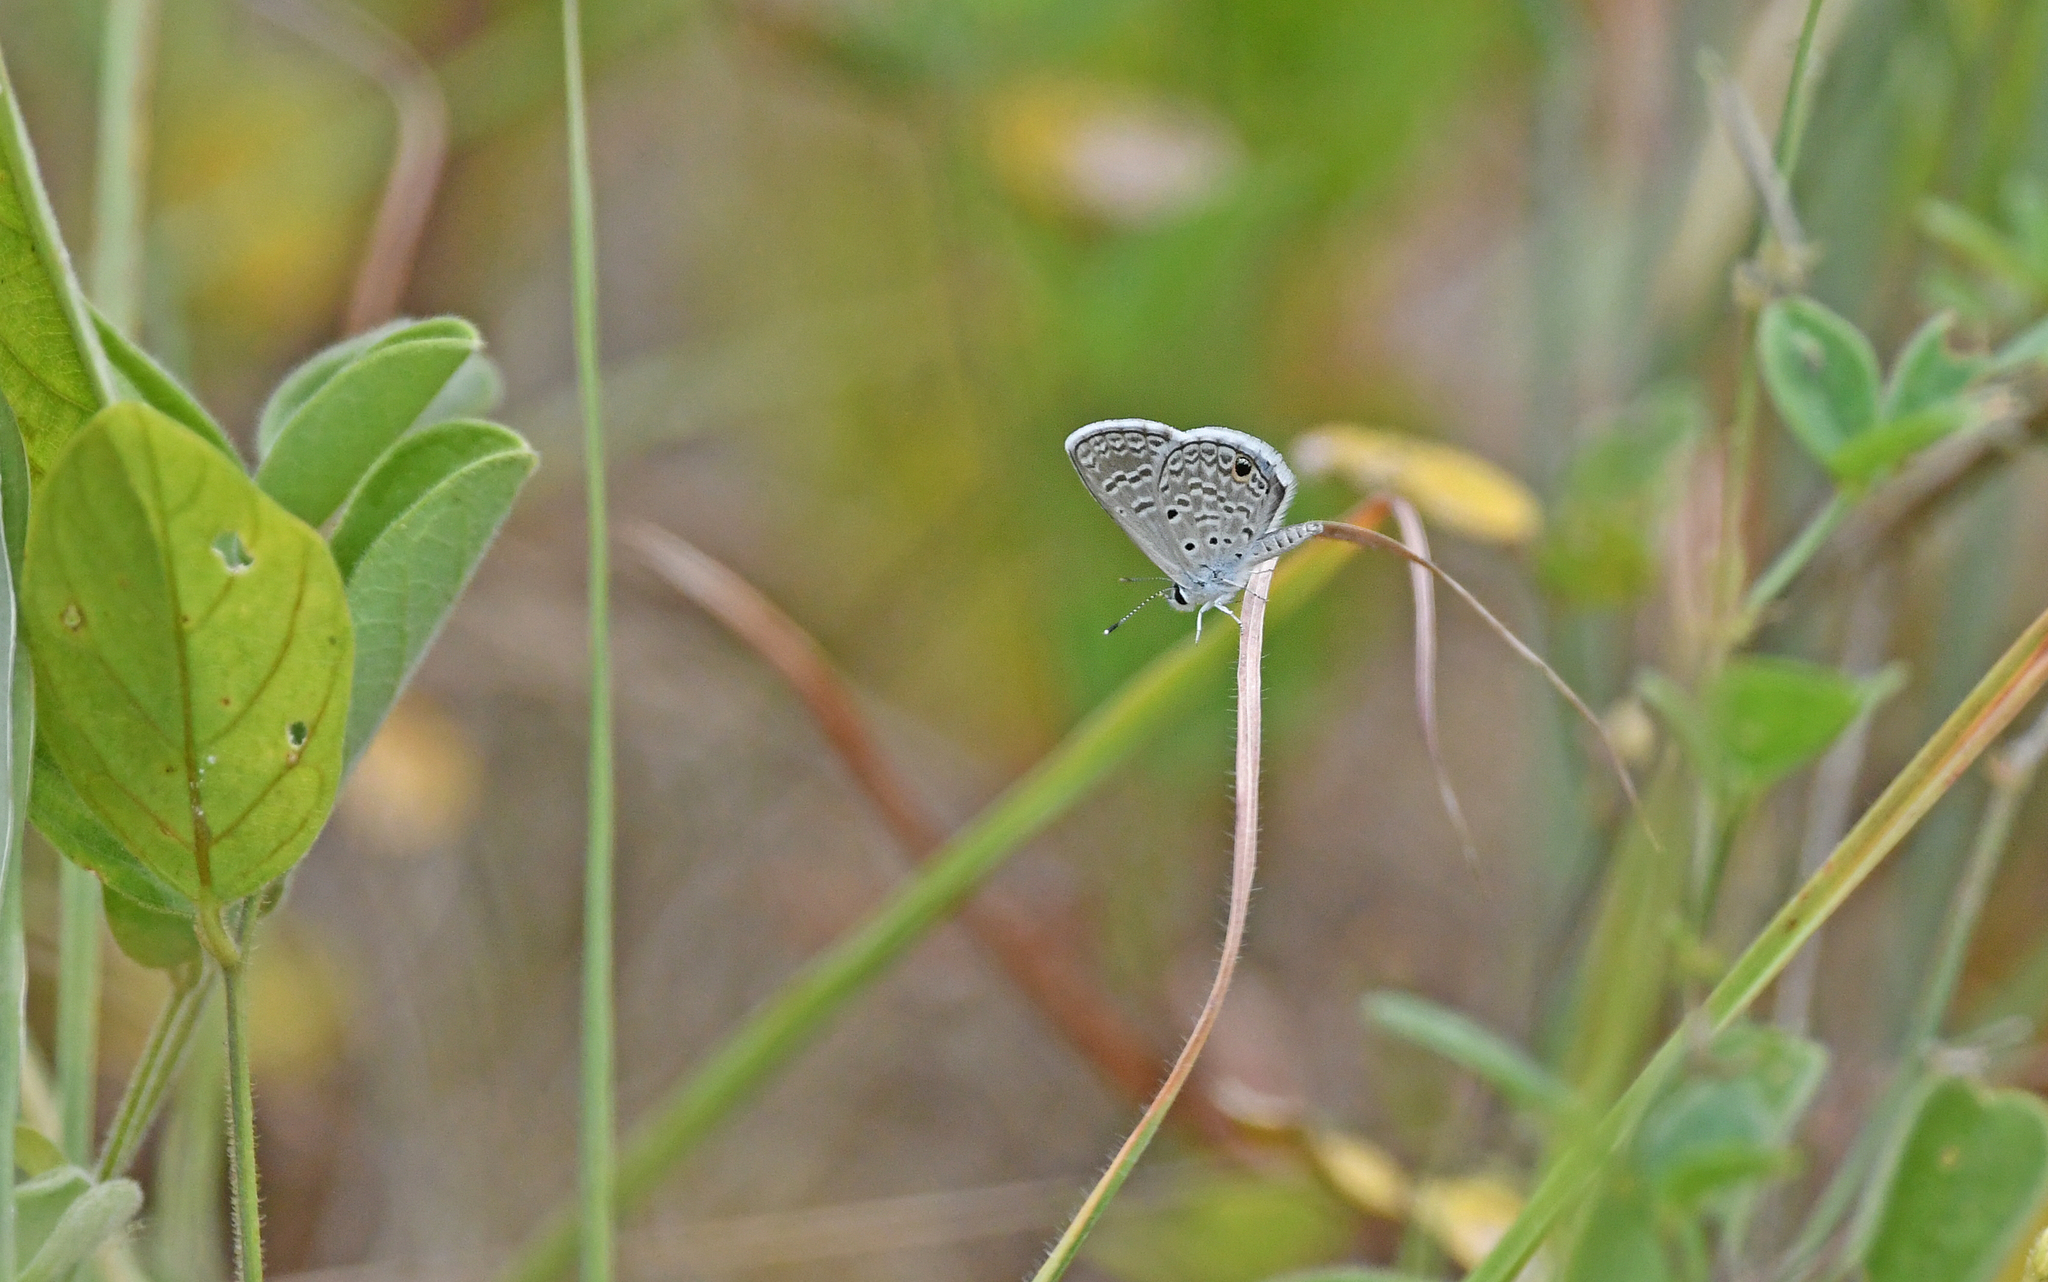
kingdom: Animalia
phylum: Arthropoda
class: Insecta
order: Lepidoptera
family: Lycaenidae
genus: Hemiargus
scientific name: Hemiargus hanno
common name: Common blue
